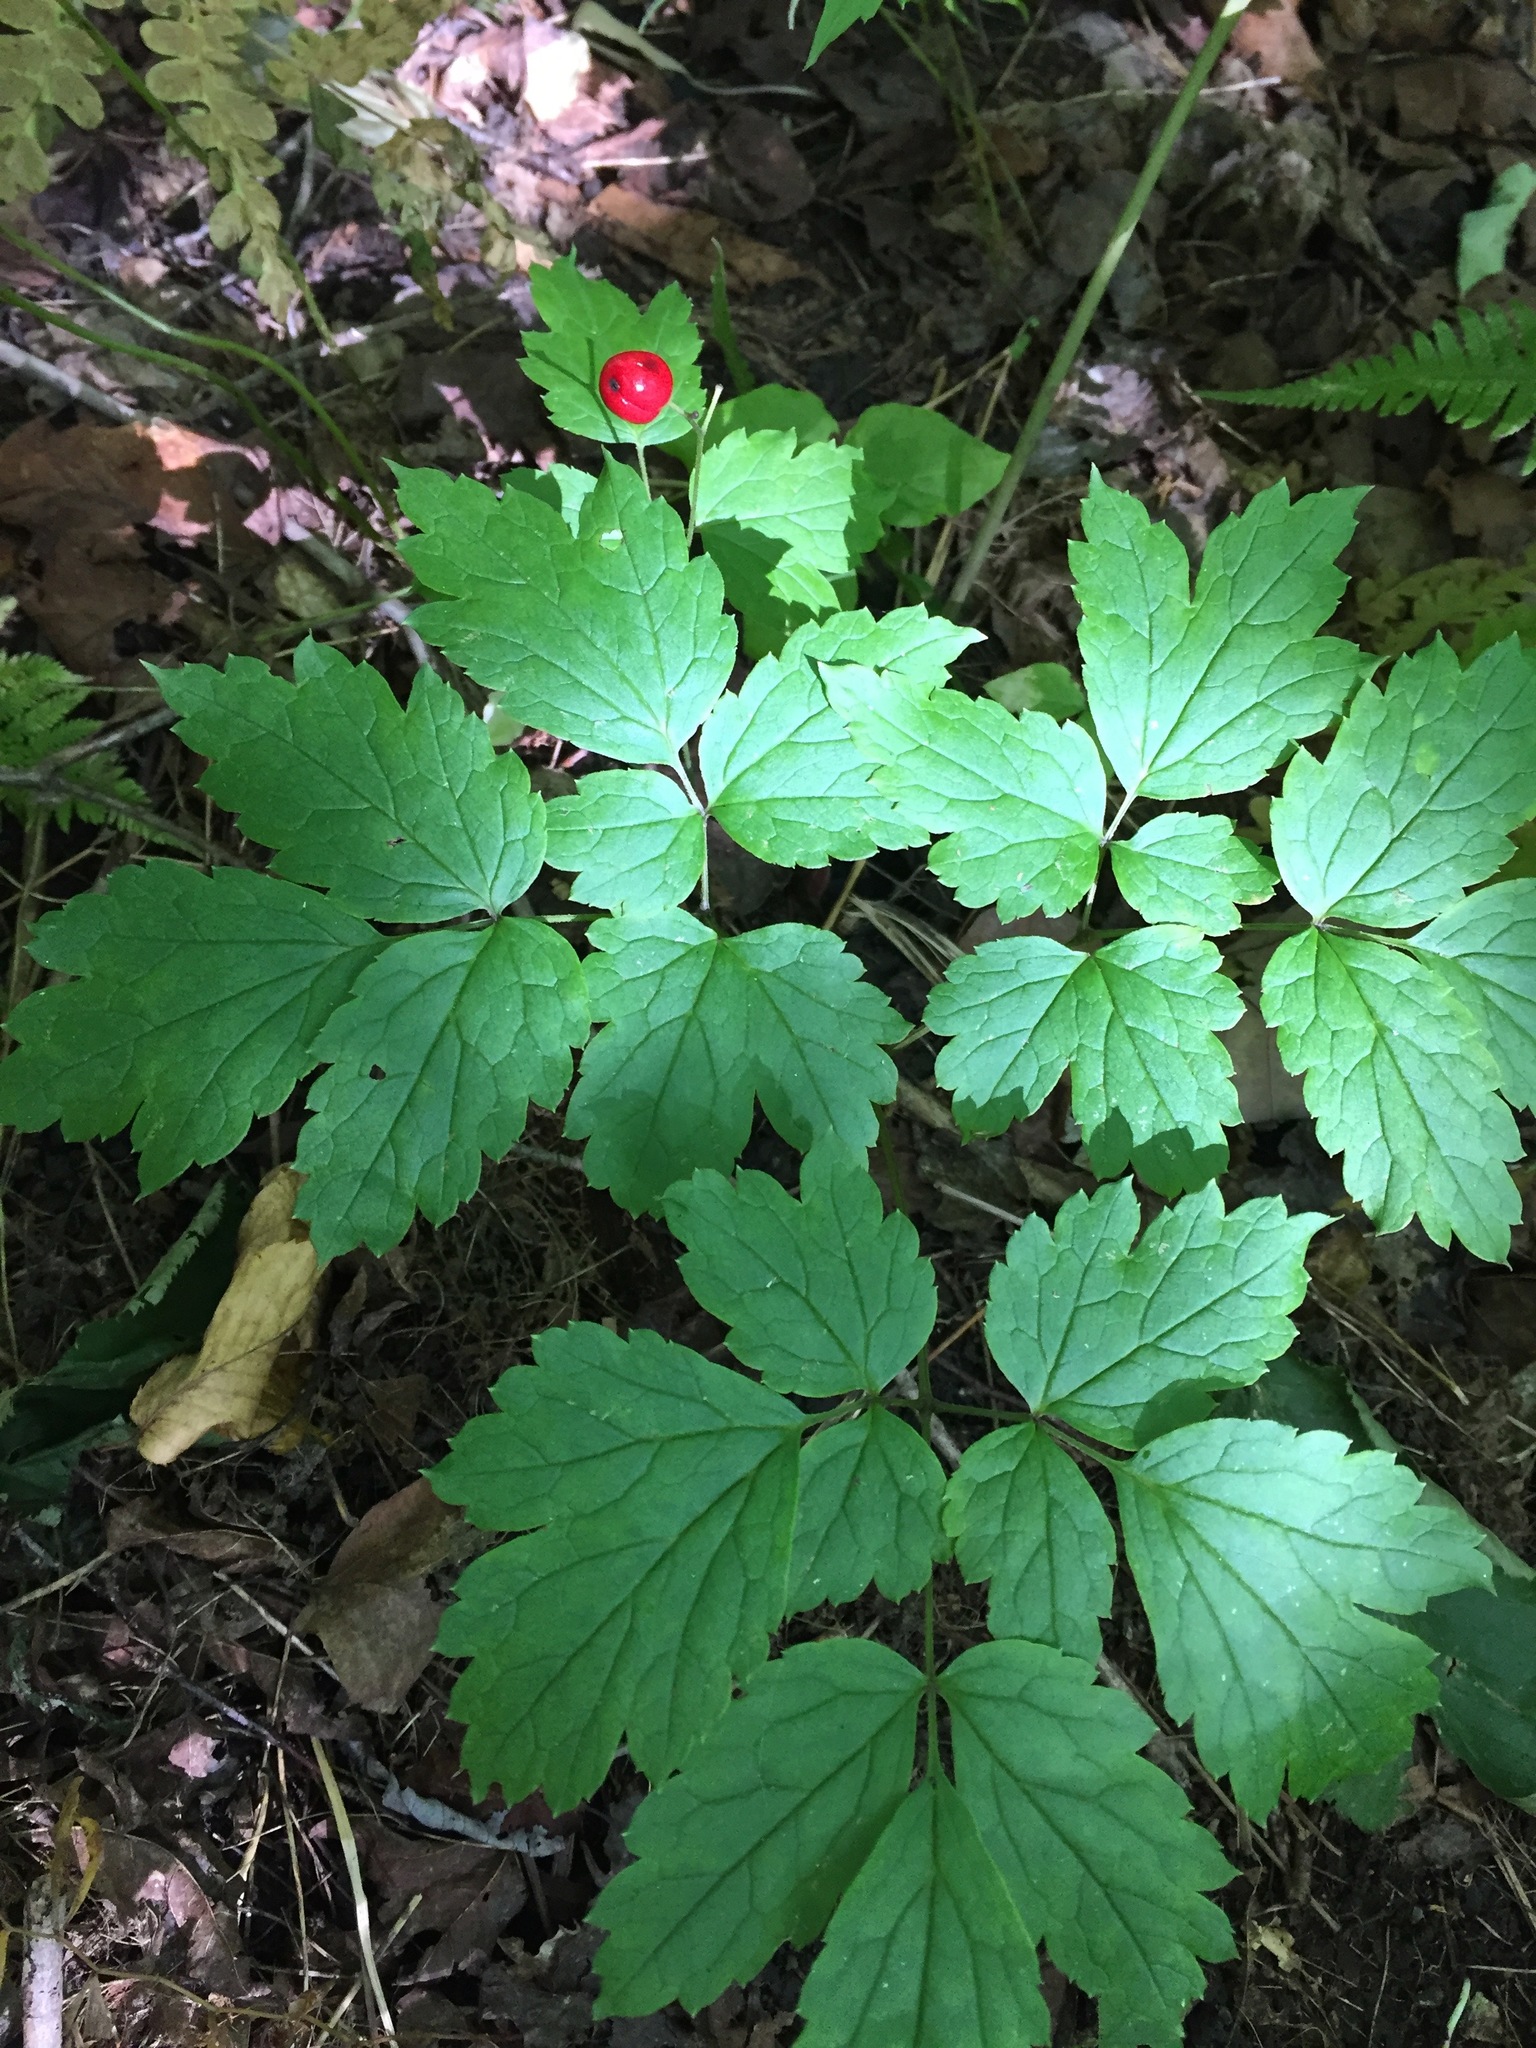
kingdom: Plantae
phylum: Tracheophyta
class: Magnoliopsida
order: Ranunculales
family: Ranunculaceae
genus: Actaea
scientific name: Actaea rubra
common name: Red baneberry
